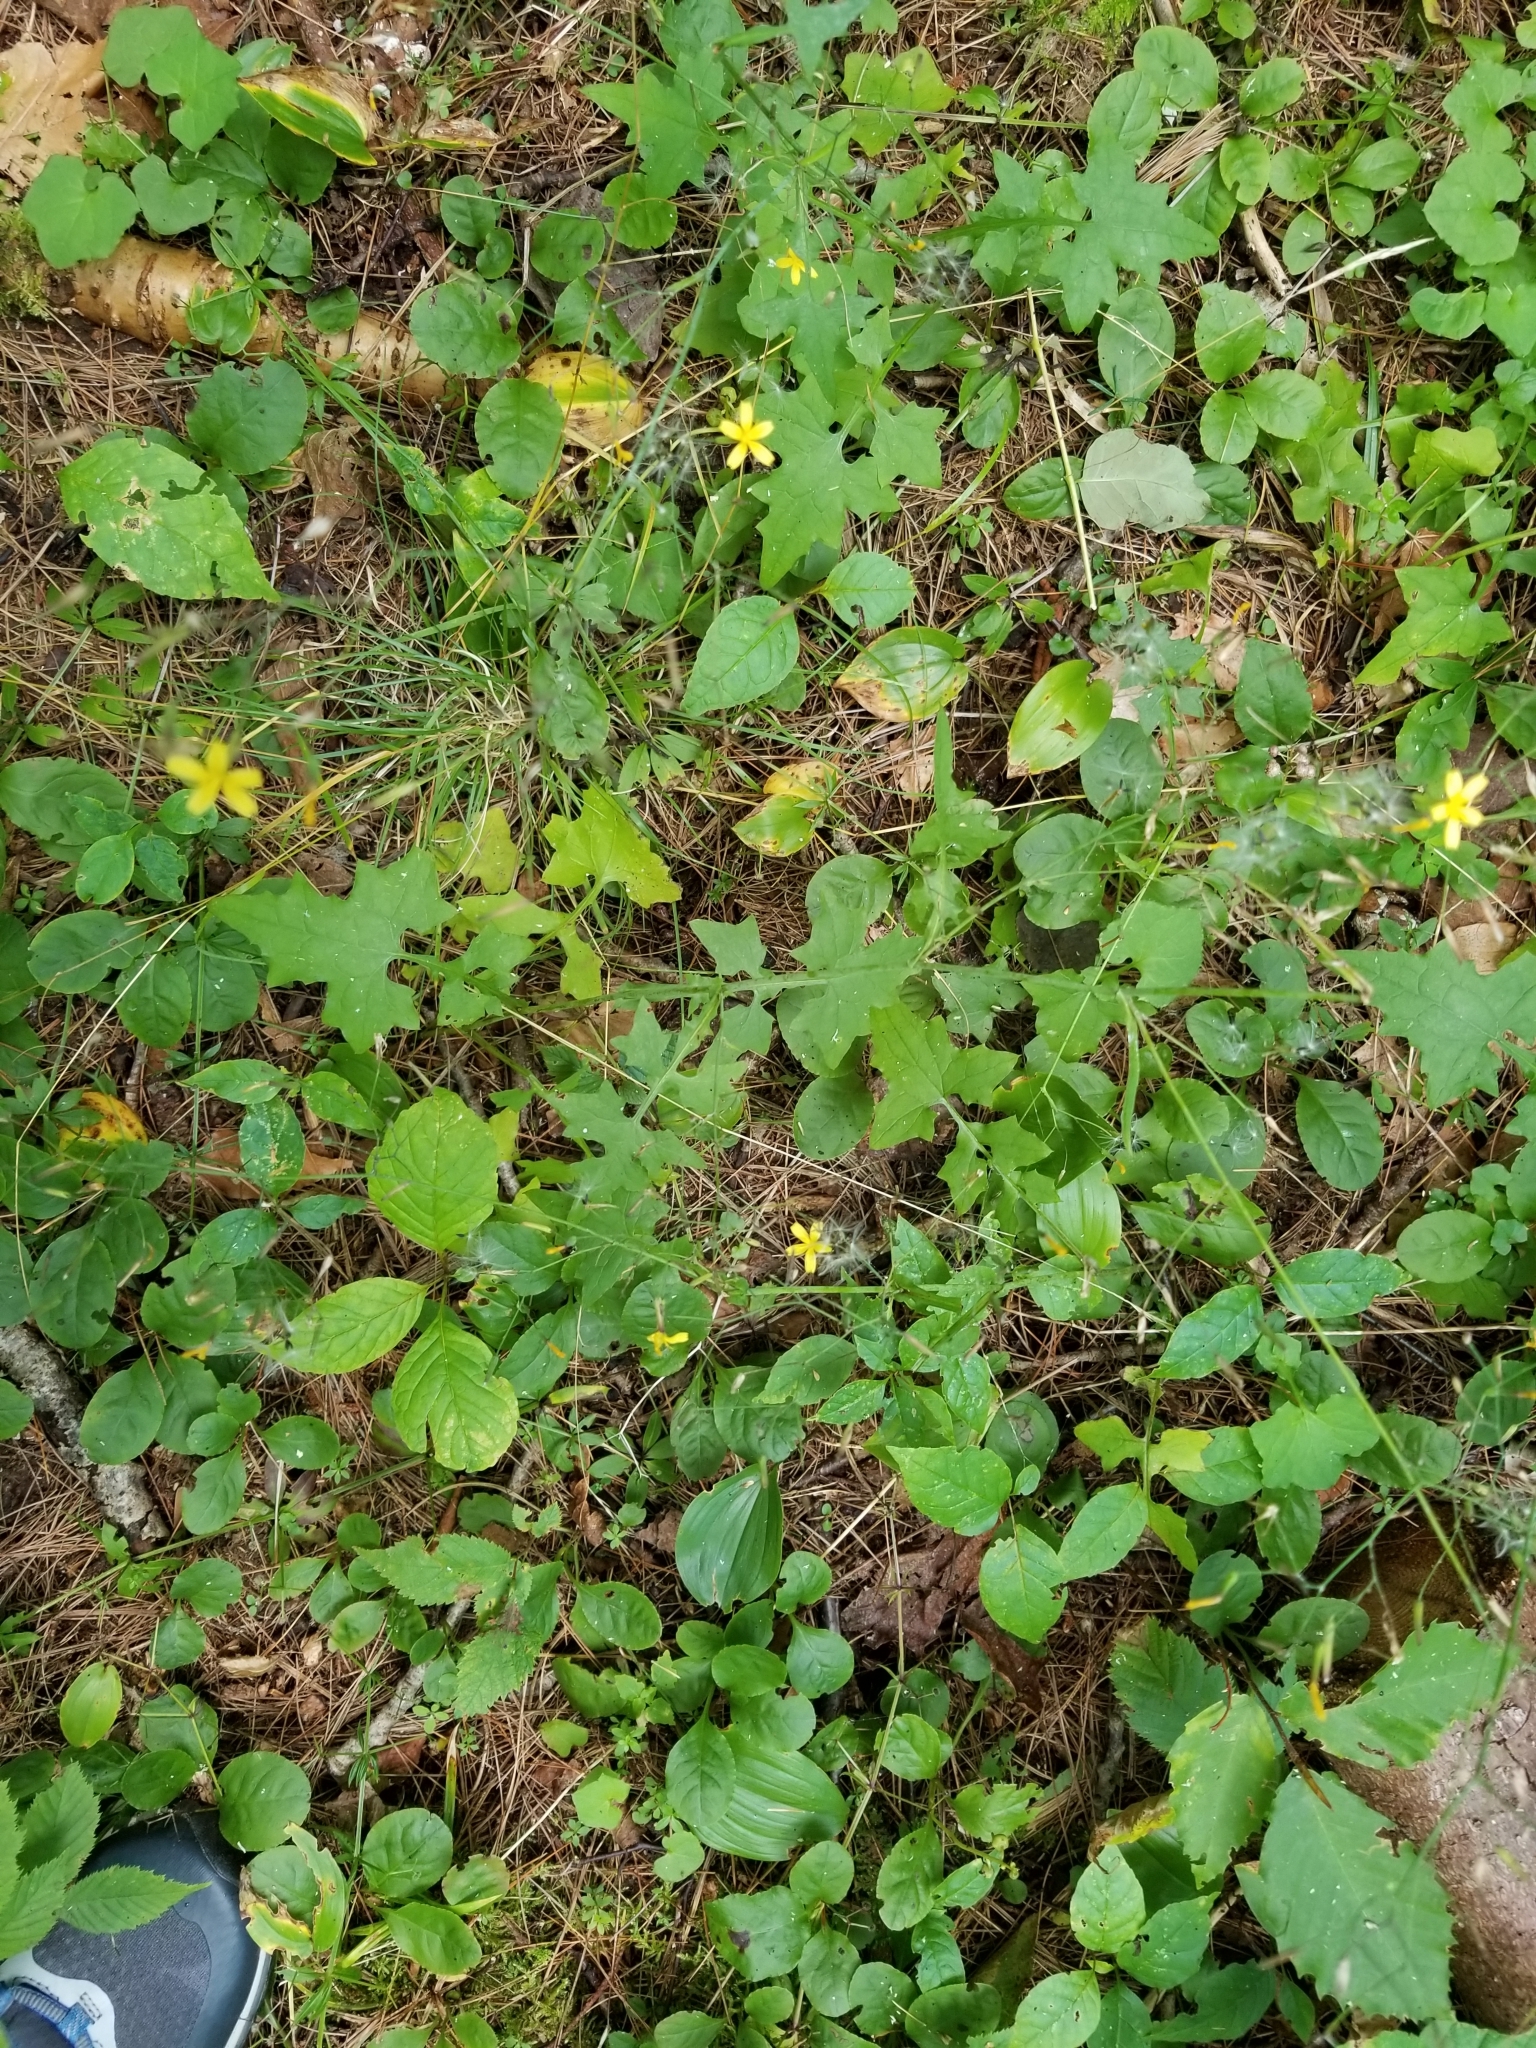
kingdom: Plantae
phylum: Tracheophyta
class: Magnoliopsida
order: Asterales
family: Asteraceae
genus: Mycelis
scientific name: Mycelis muralis
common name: Wall lettuce
